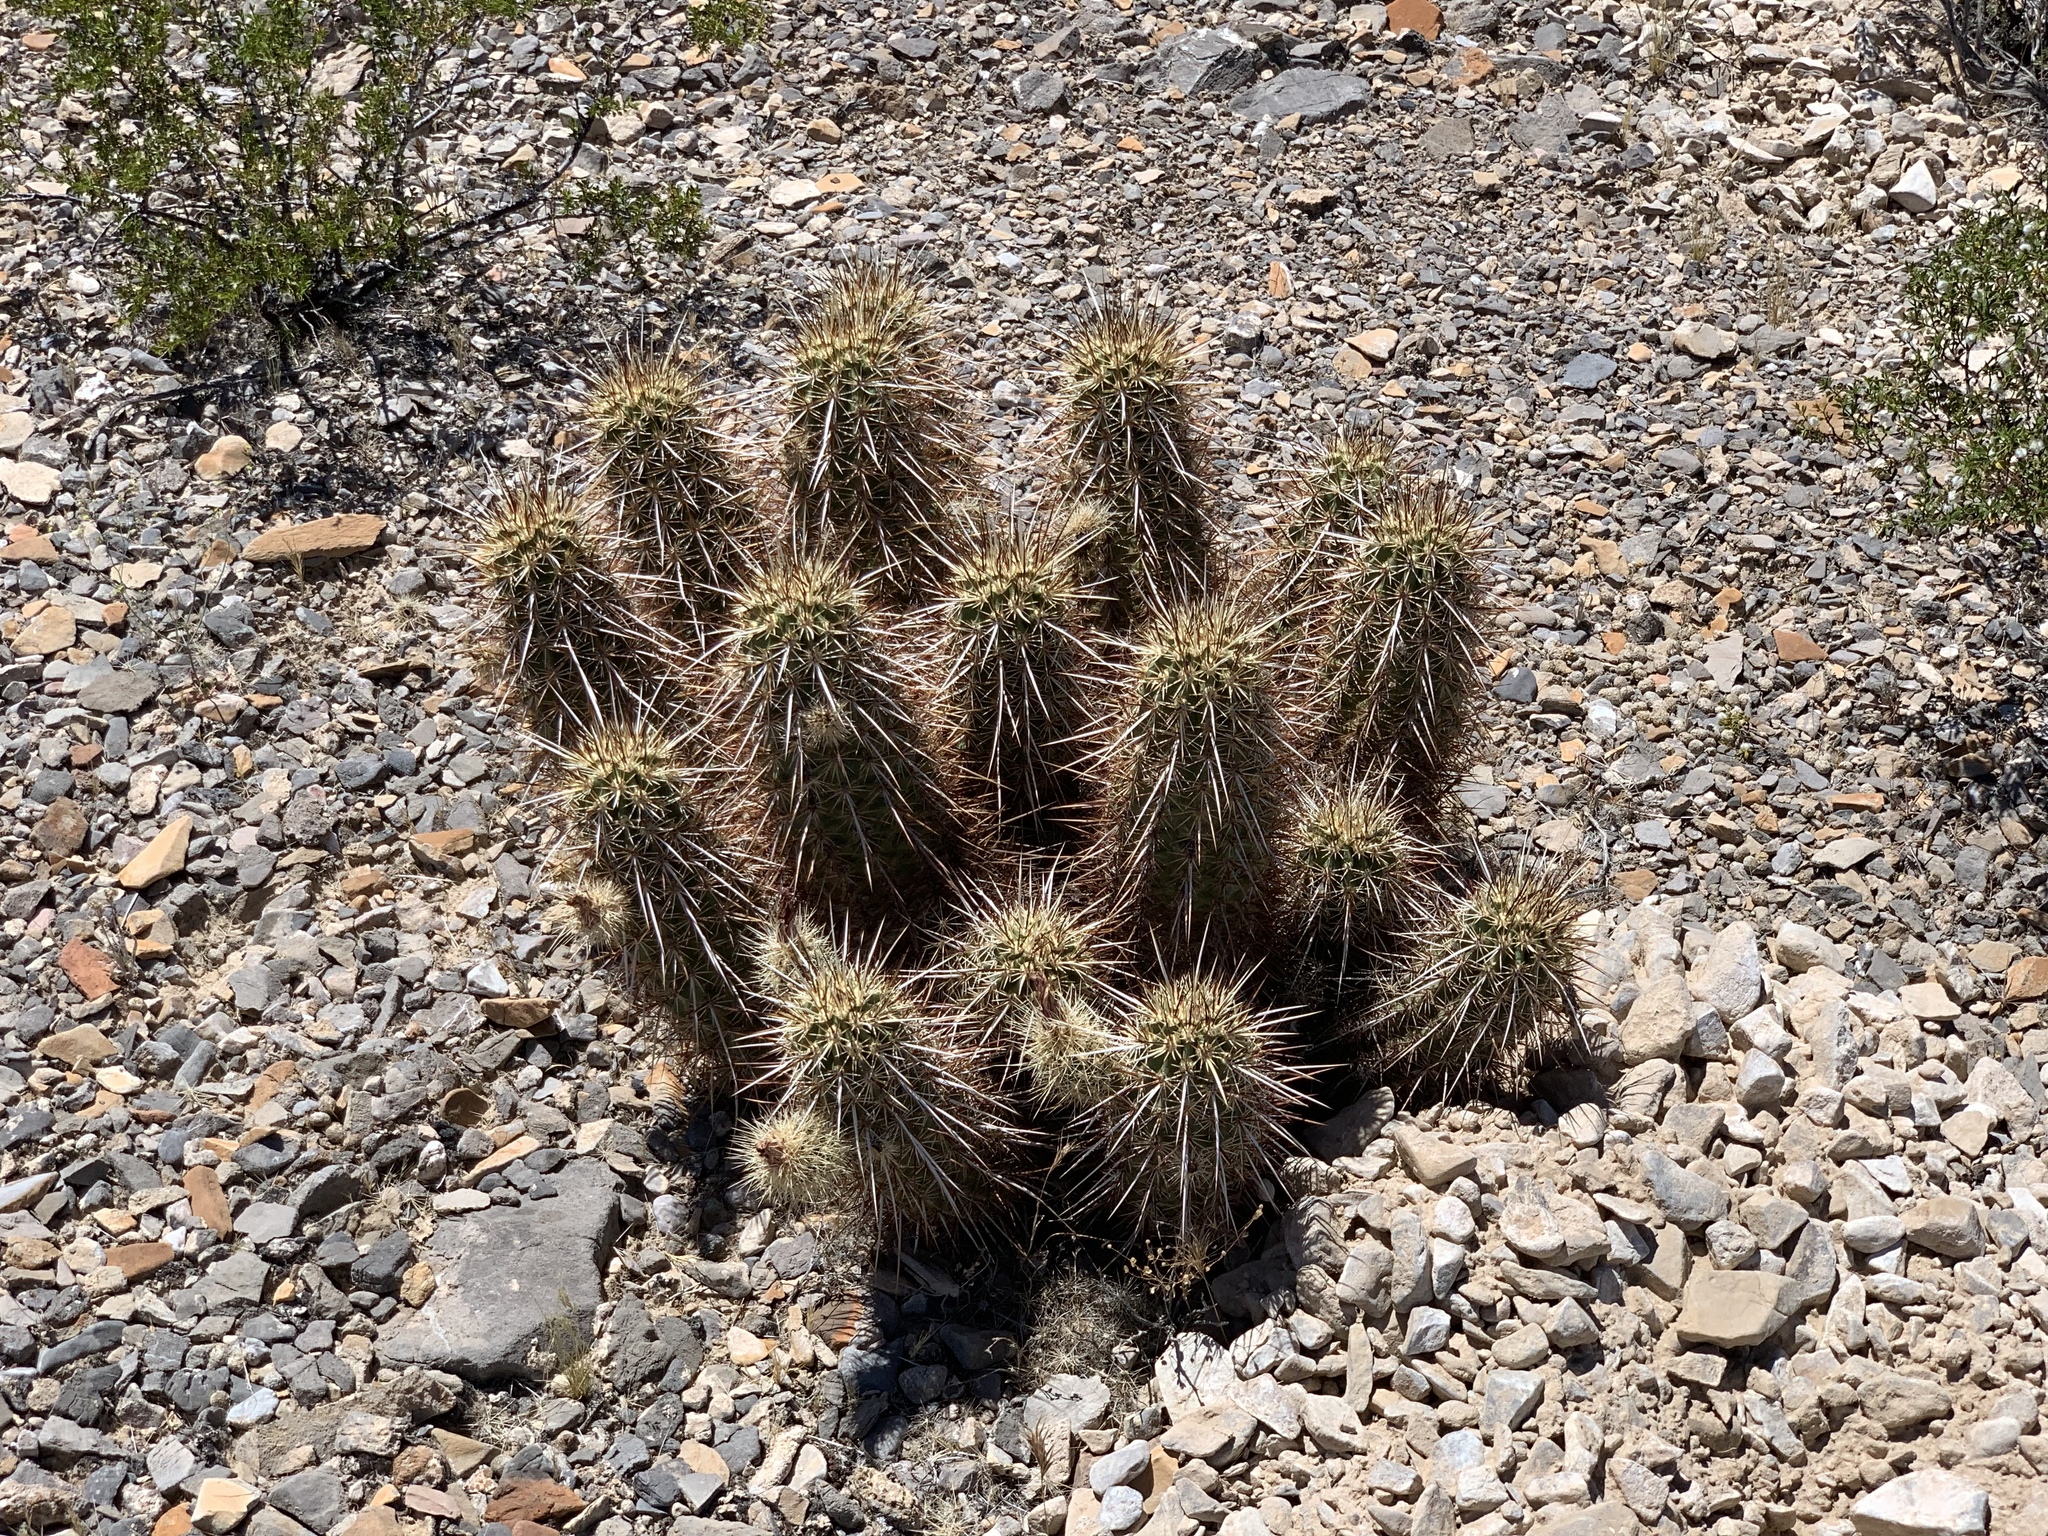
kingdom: Plantae
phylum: Tracheophyta
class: Magnoliopsida
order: Caryophyllales
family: Cactaceae
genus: Echinocereus
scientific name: Echinocereus engelmannii
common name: Engelmann's hedgehog cactus
